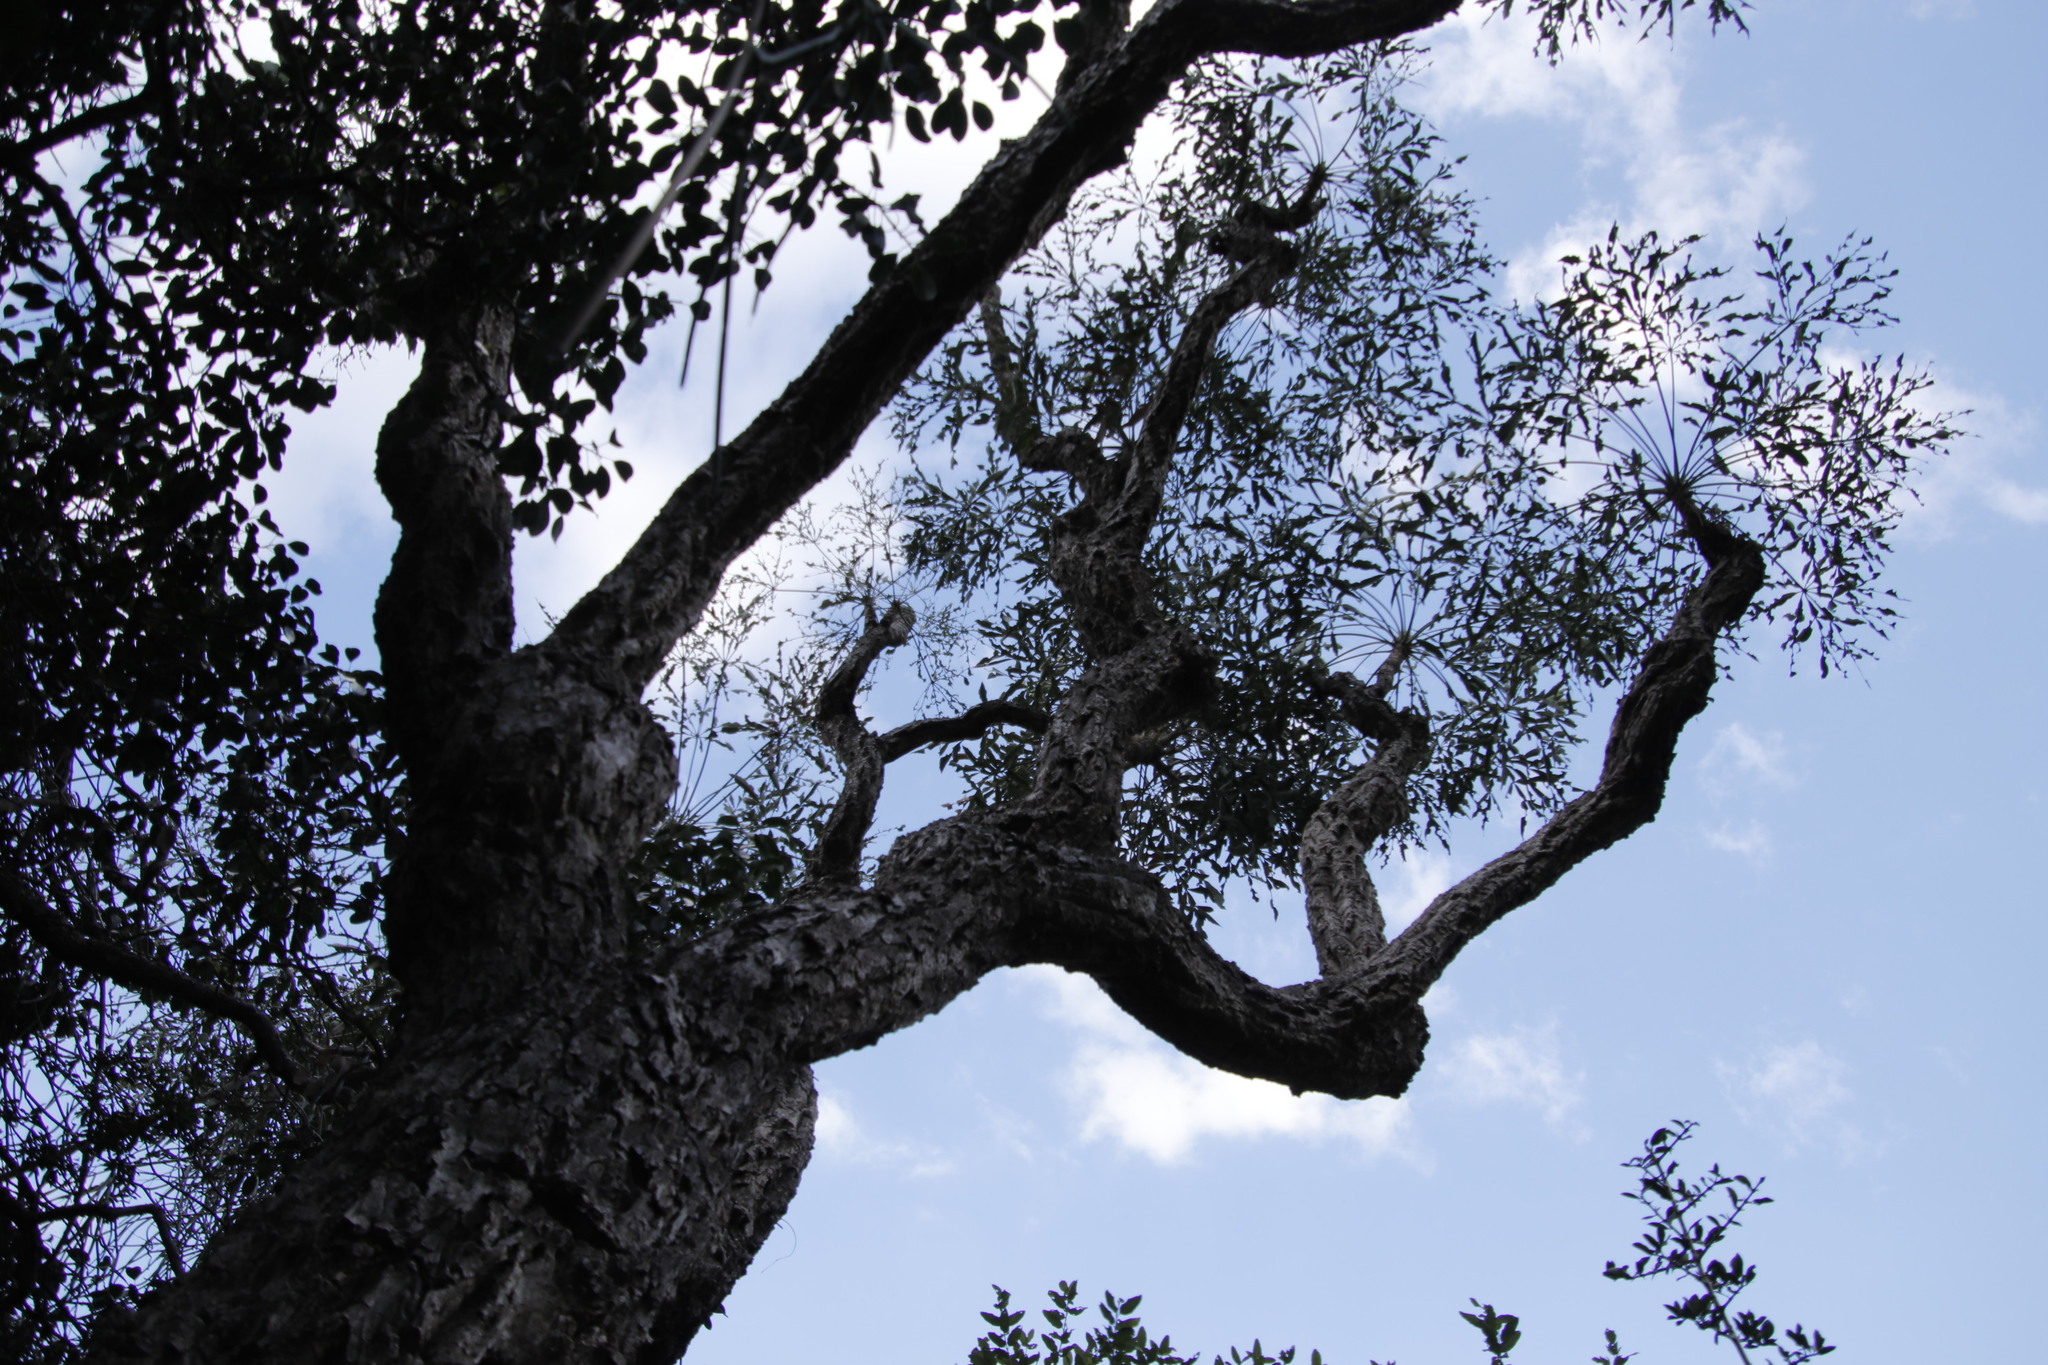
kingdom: Plantae
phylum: Tracheophyta
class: Magnoliopsida
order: Apiales
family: Araliaceae
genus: Cussonia
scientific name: Cussonia spicata
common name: Common cabbagetree
